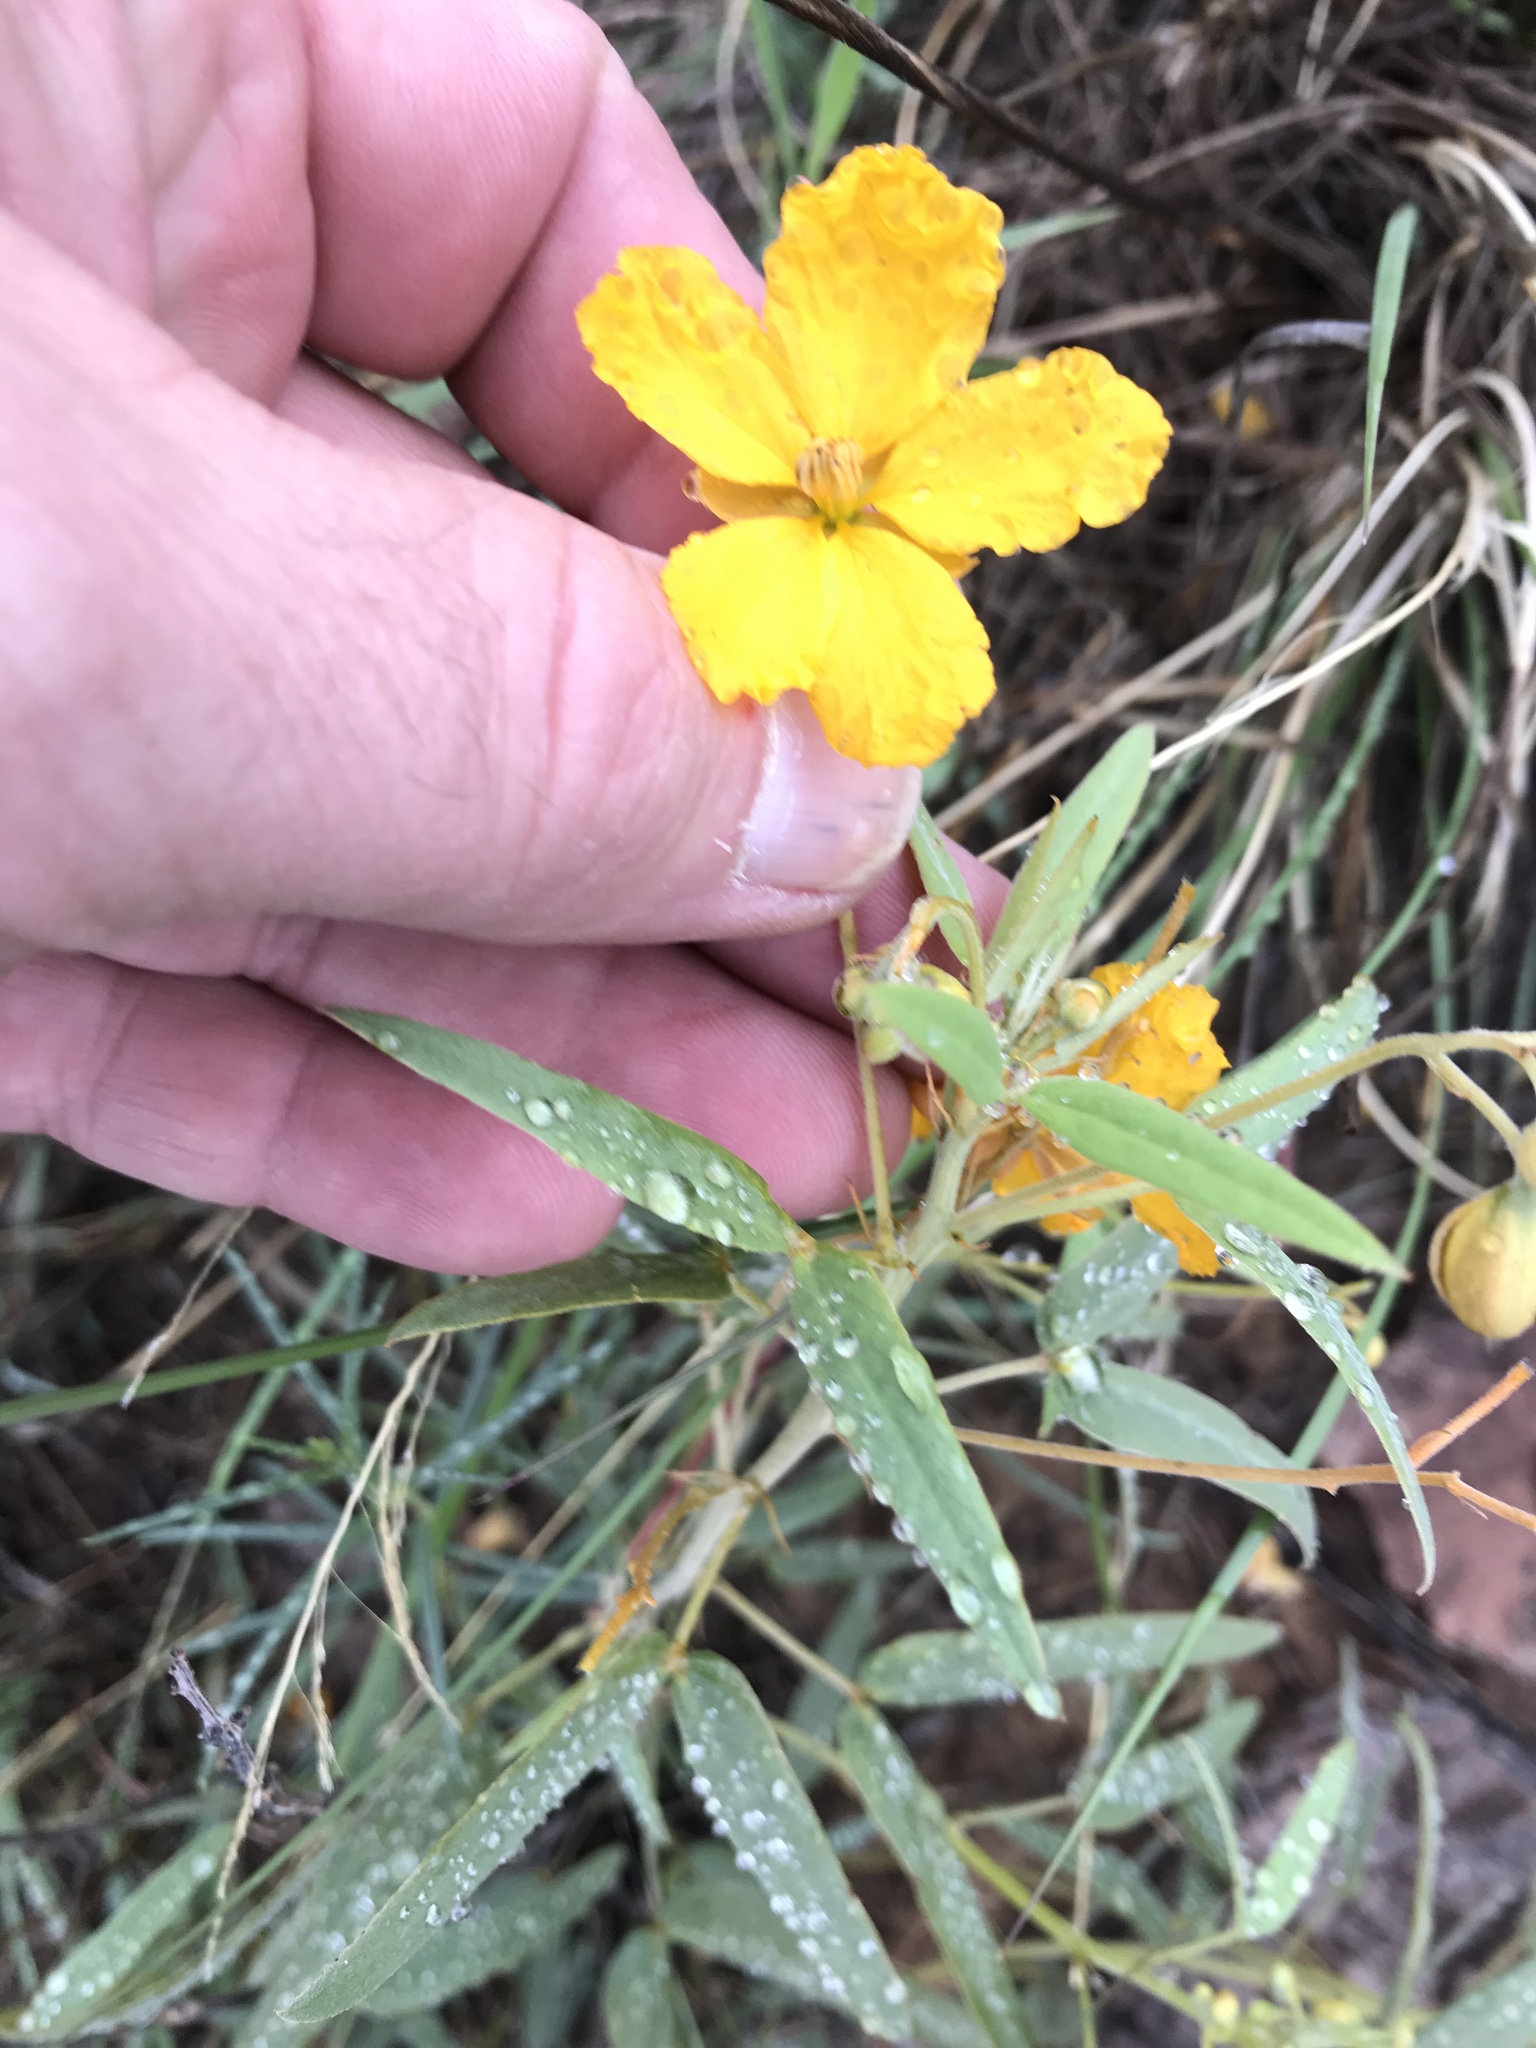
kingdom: Plantae
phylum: Tracheophyta
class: Magnoliopsida
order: Fabales
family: Fabaceae
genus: Senna
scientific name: Senna roemeriana
